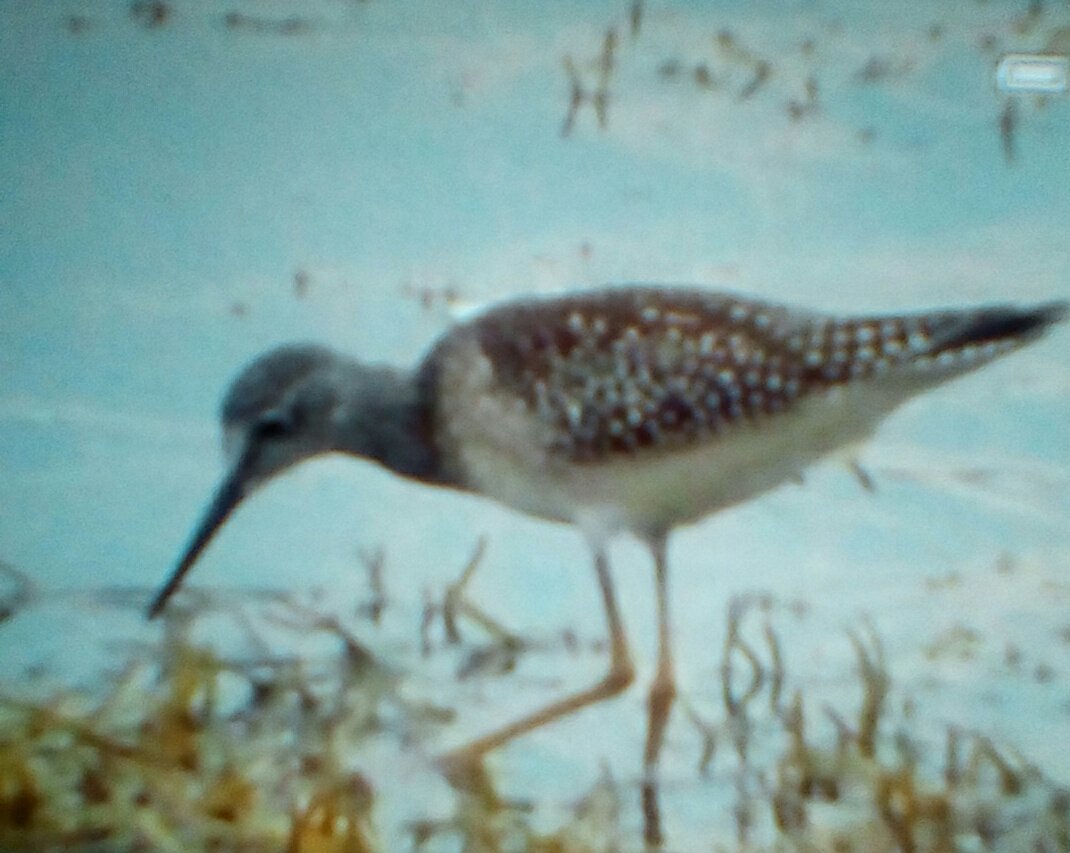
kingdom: Animalia
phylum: Chordata
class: Aves
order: Charadriiformes
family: Scolopacidae
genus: Tringa
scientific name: Tringa flavipes
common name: Lesser yellowlegs
